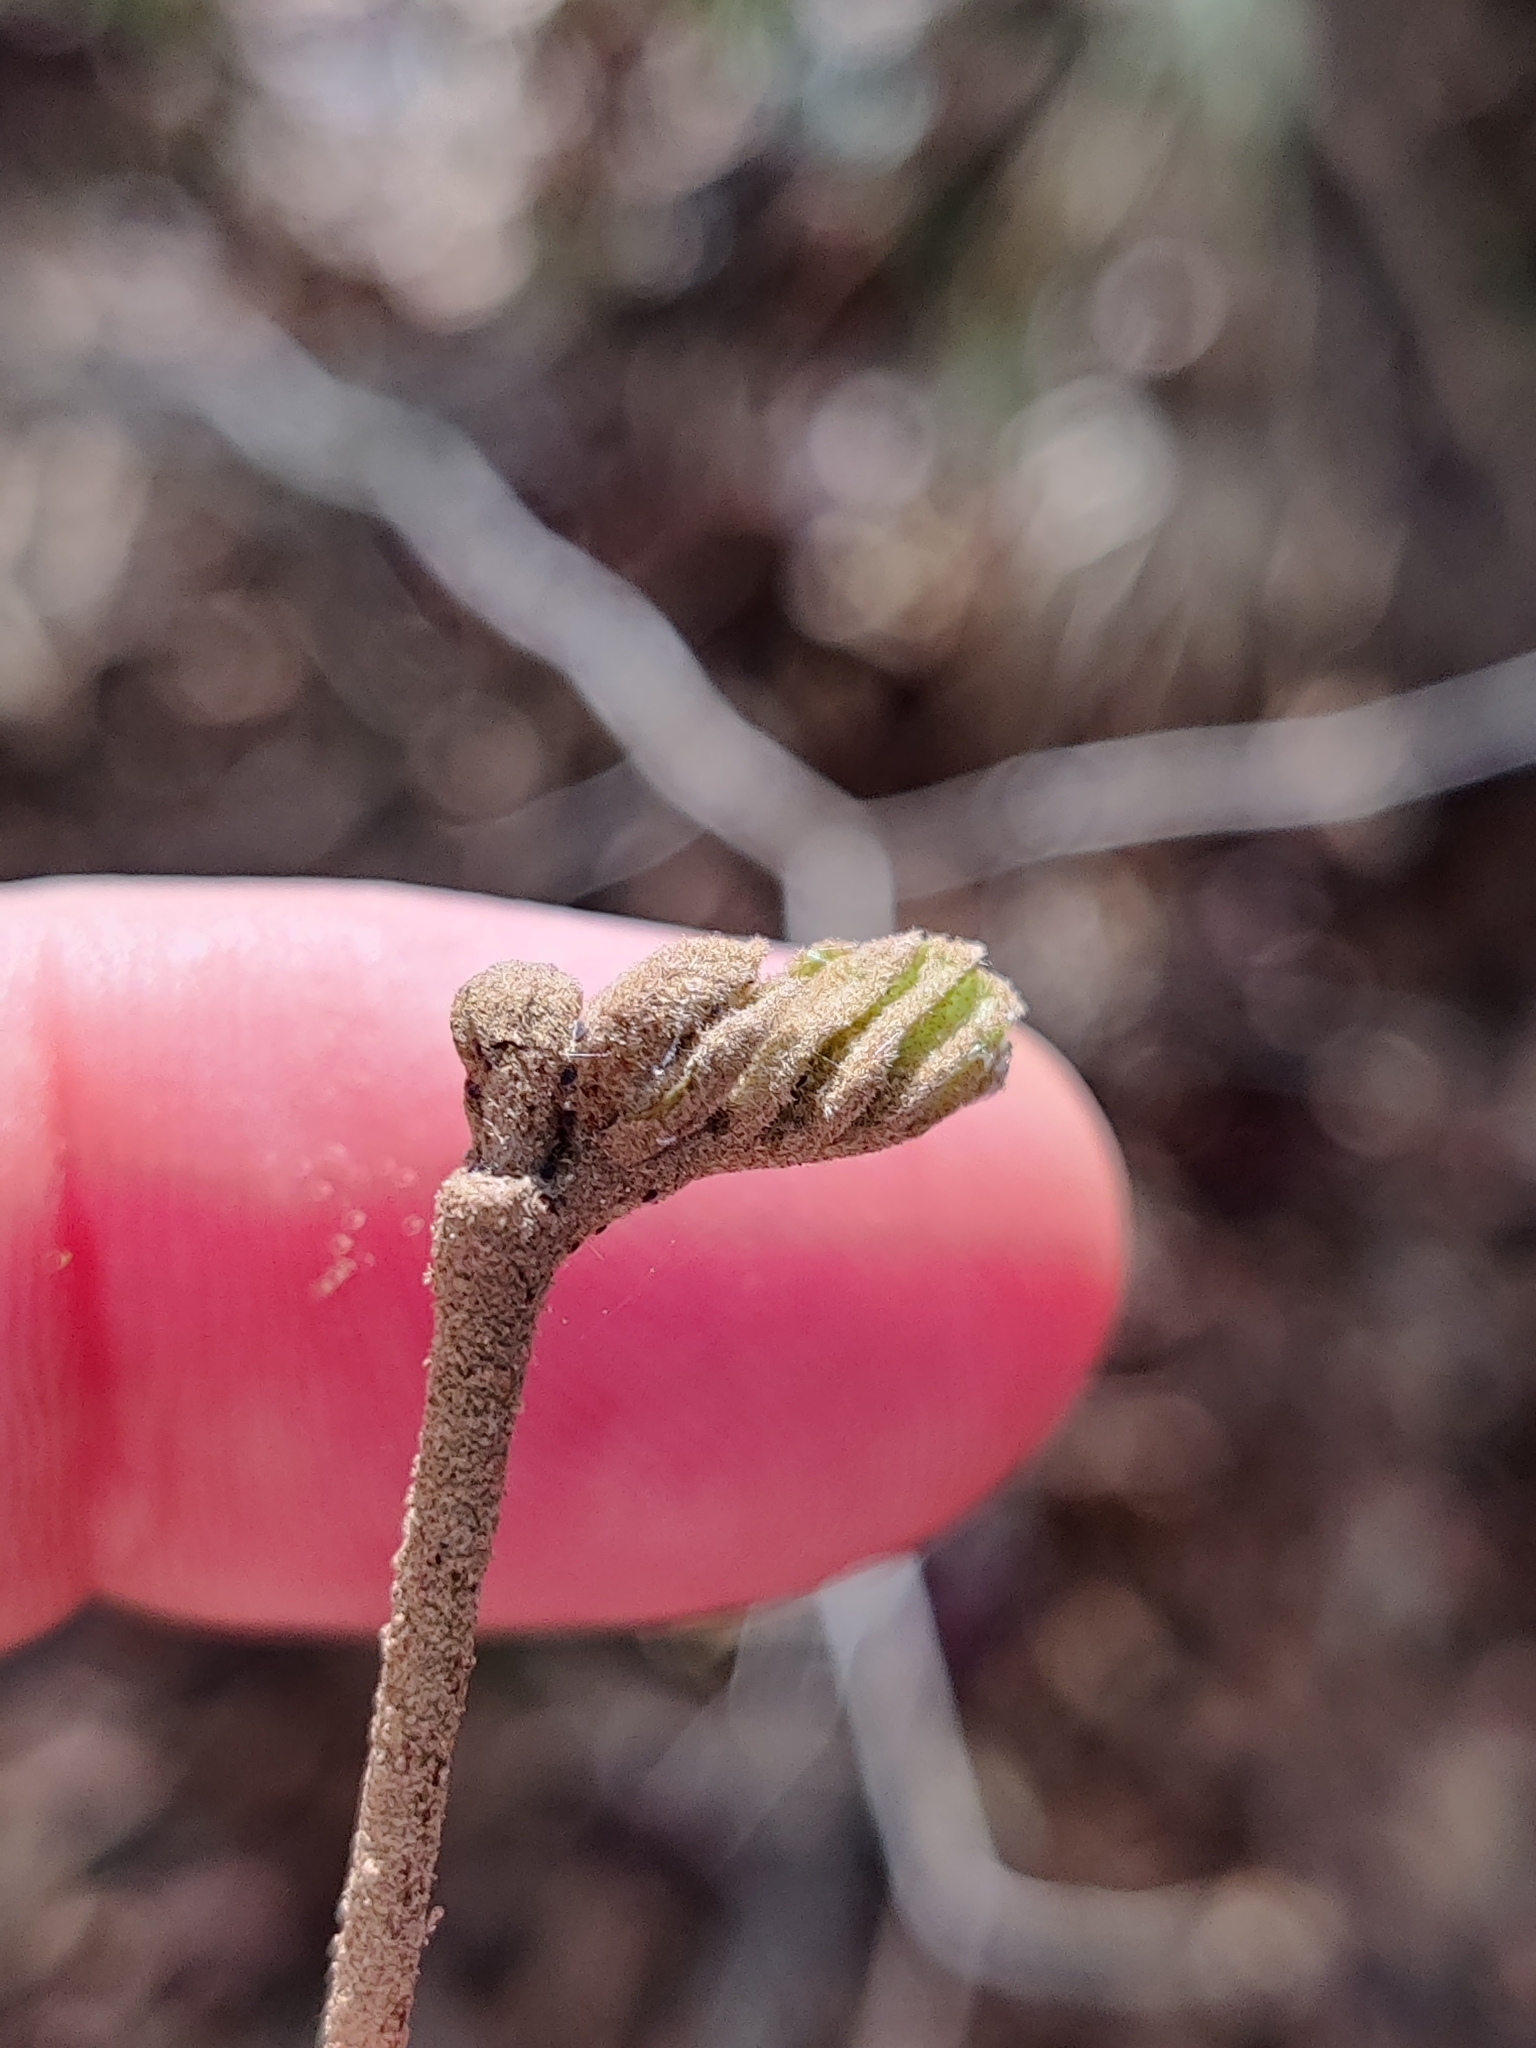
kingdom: Plantae
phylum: Tracheophyta
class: Magnoliopsida
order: Saxifragales
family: Hamamelidaceae
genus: Hamamelis
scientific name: Hamamelis virginiana
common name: Witch-hazel
